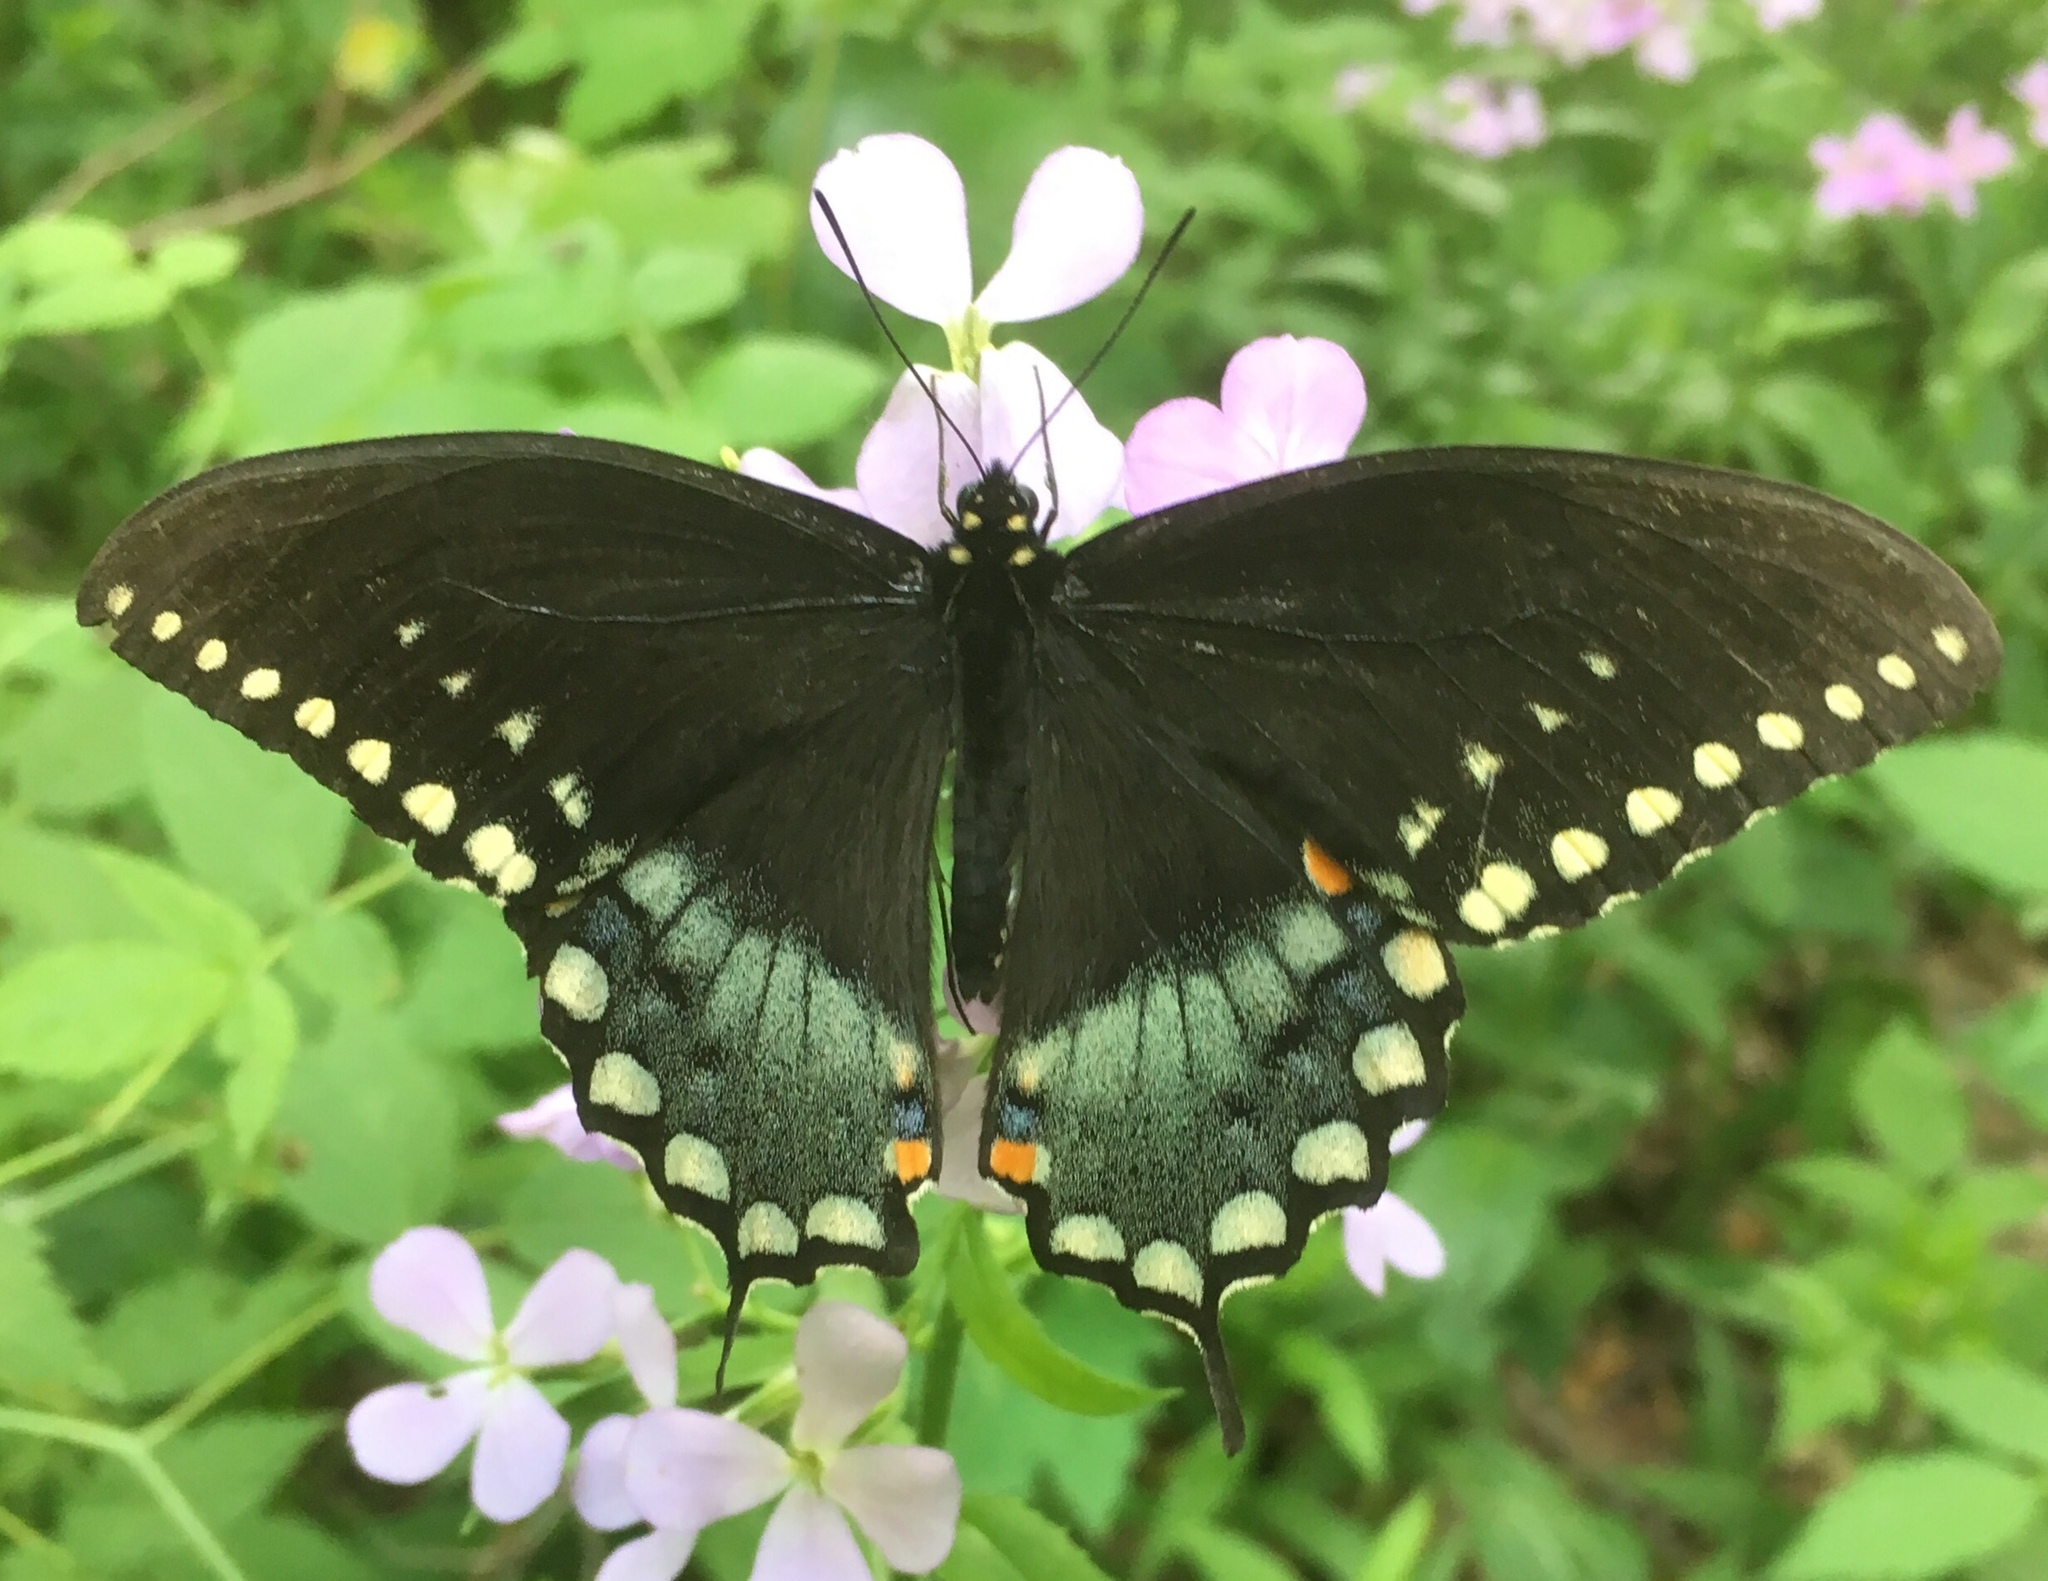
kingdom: Animalia
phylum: Arthropoda
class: Insecta
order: Lepidoptera
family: Papilionidae
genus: Papilio
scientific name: Papilio troilus
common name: Spicebush swallowtail
